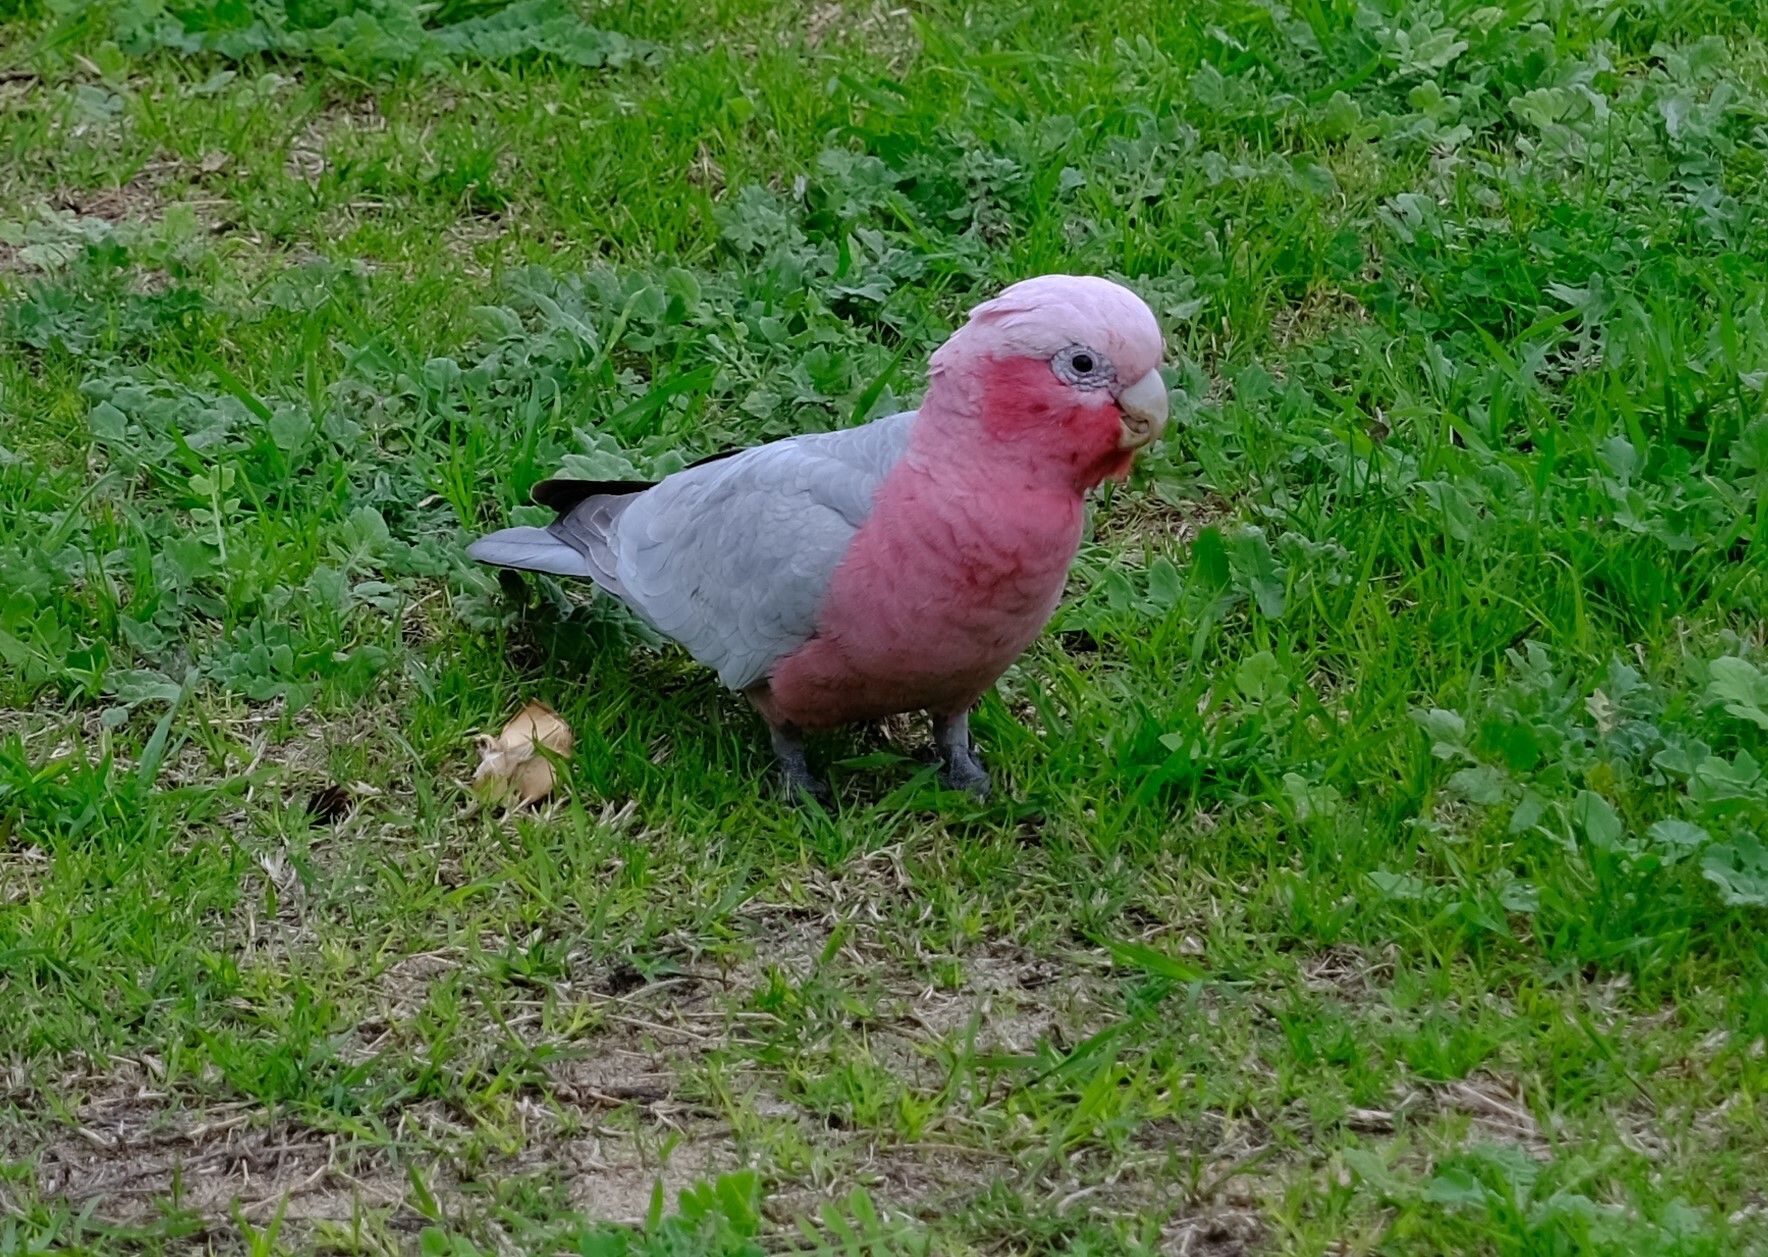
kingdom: Animalia
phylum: Chordata
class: Aves
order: Psittaciformes
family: Psittacidae
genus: Eolophus
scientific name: Eolophus roseicapilla
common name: Galah
